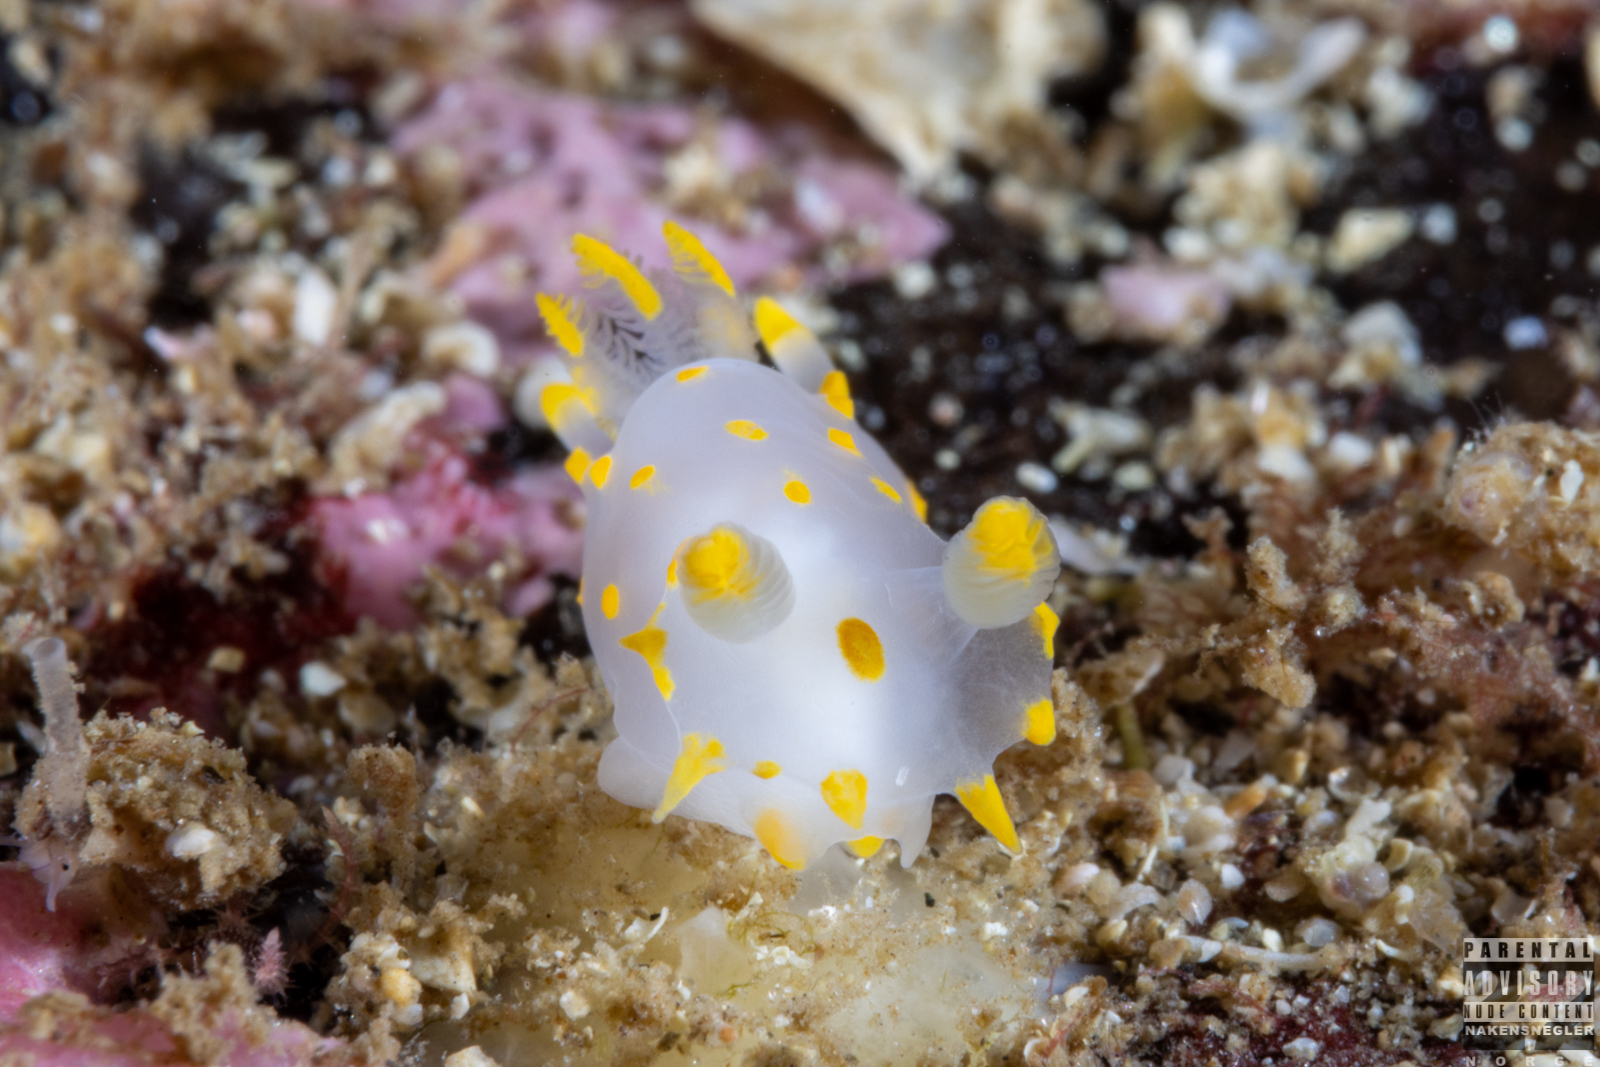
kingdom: Animalia
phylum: Mollusca
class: Gastropoda
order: Nudibranchia
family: Polyceridae
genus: Polycera
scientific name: Polycera quadrilineata
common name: Four-striped polycera
